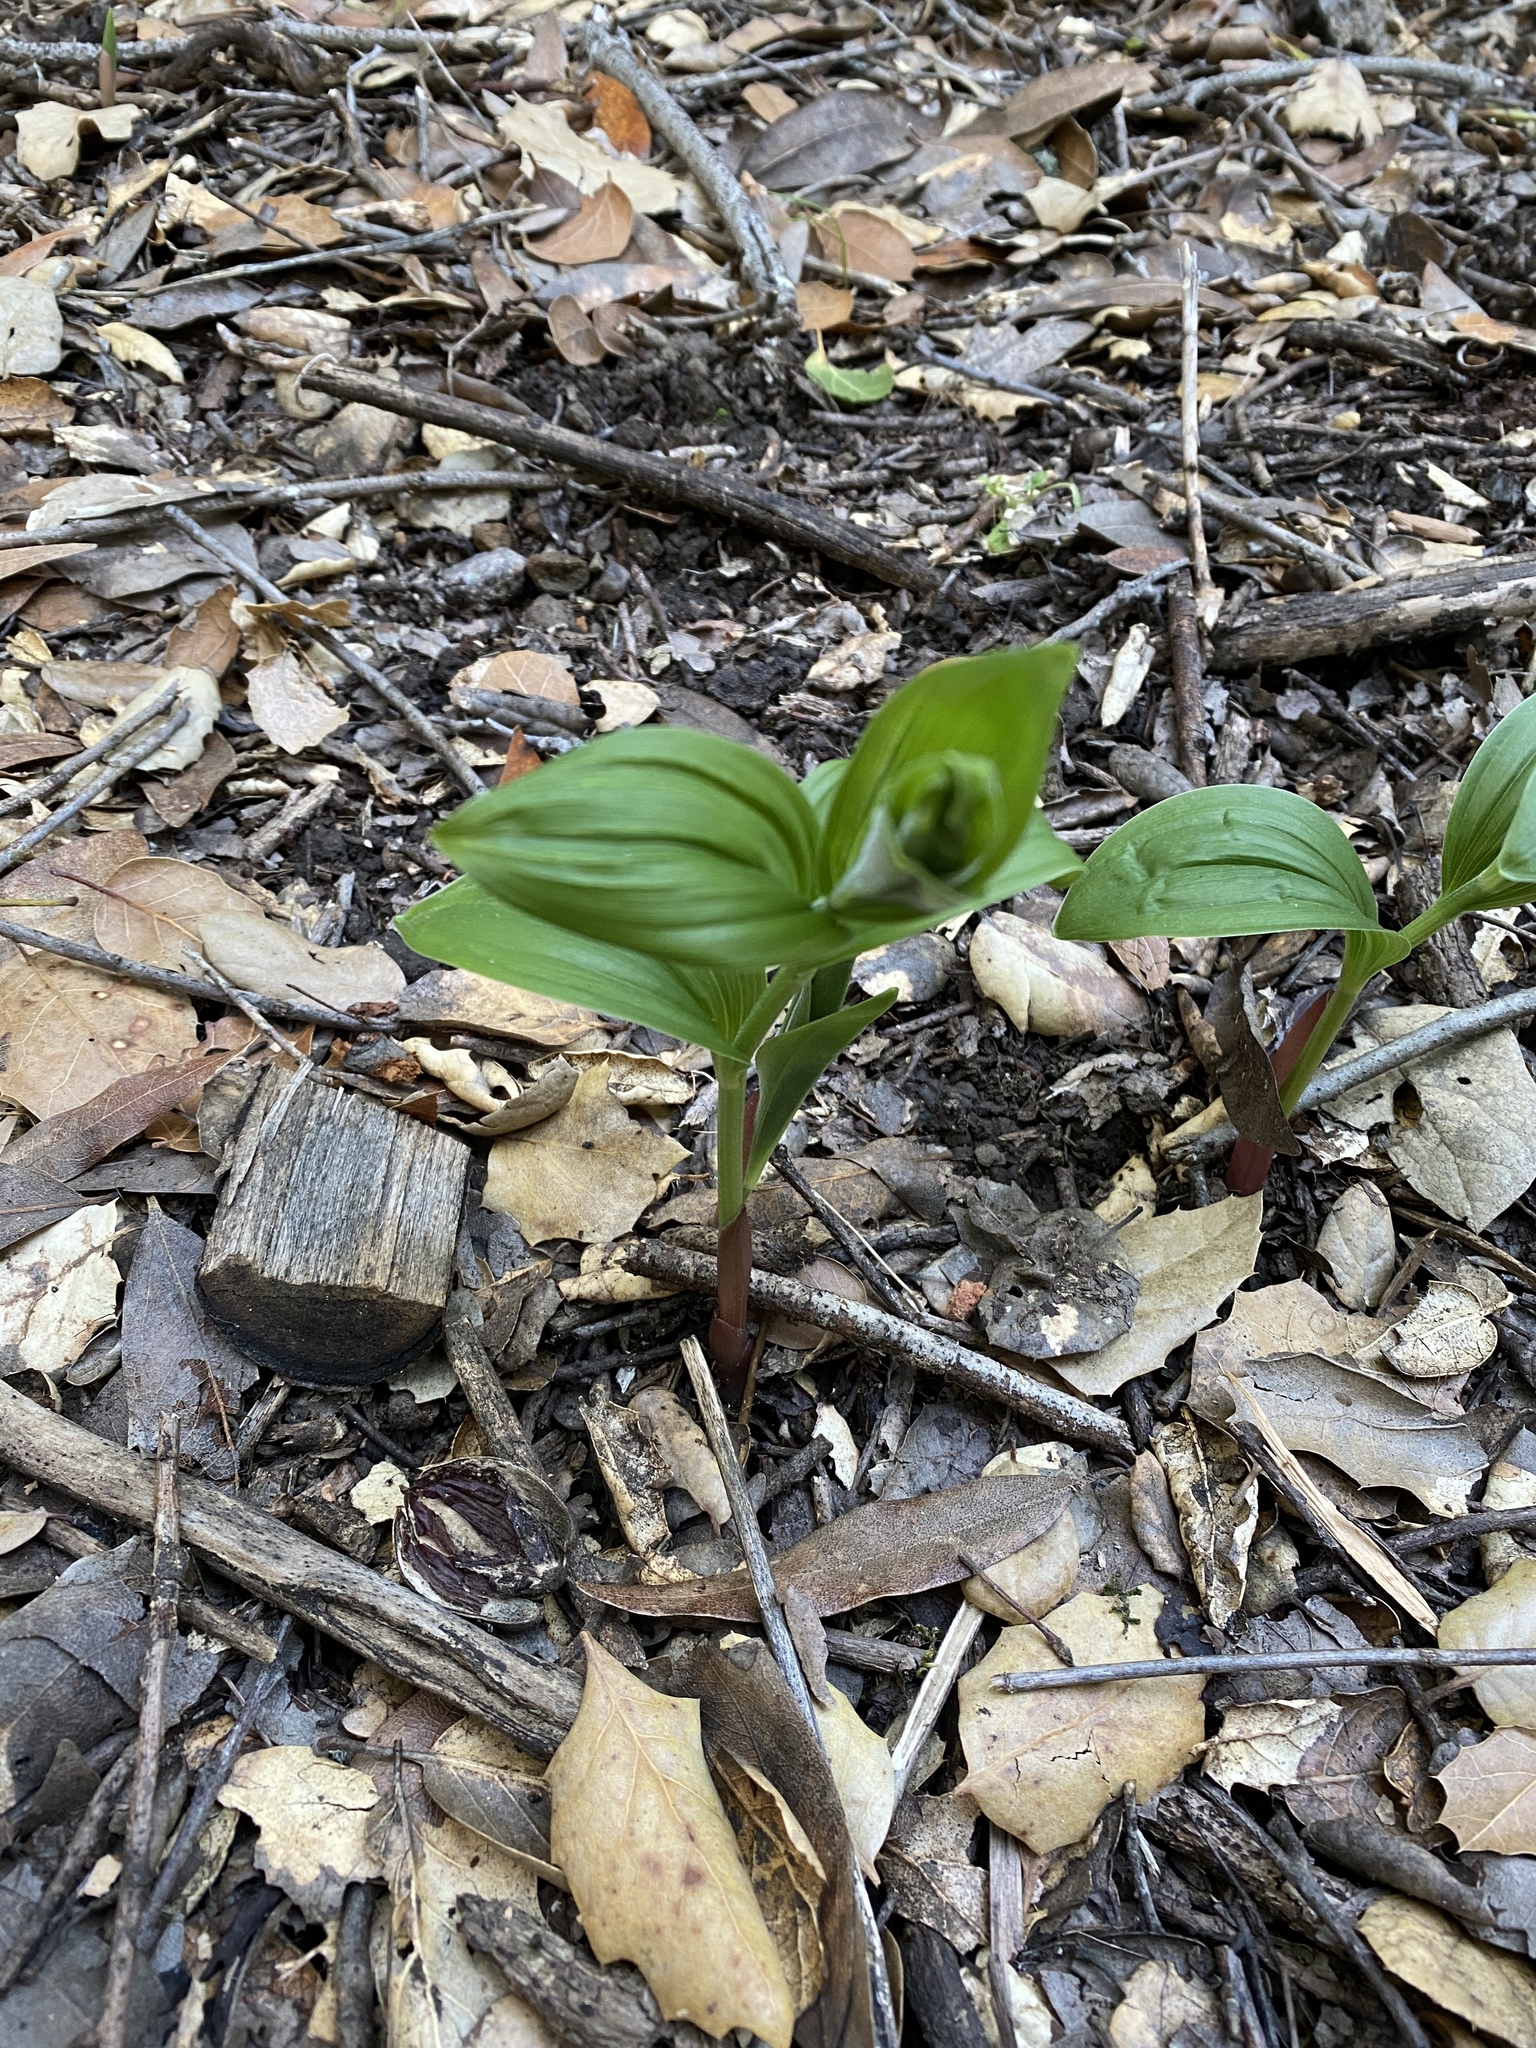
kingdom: Plantae
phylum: Tracheophyta
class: Liliopsida
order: Asparagales
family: Orchidaceae
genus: Epipactis
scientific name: Epipactis helleborine
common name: Broad-leaved helleborine
